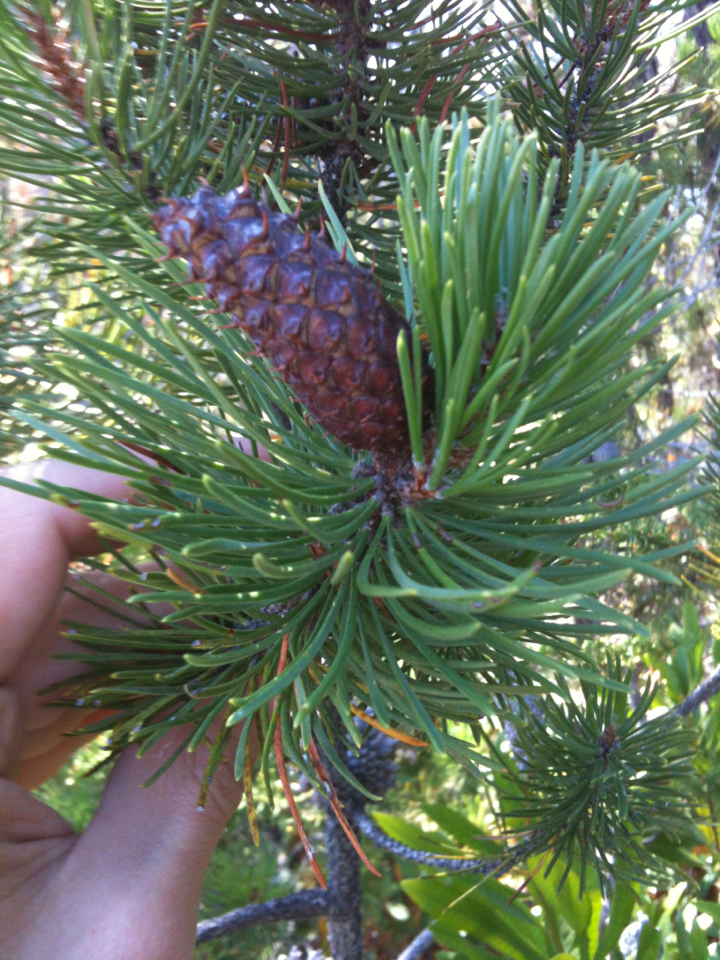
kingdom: Plantae
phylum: Tracheophyta
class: Pinopsida
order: Pinales
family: Pinaceae
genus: Pinus
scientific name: Pinus contorta
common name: Lodgepole pine
